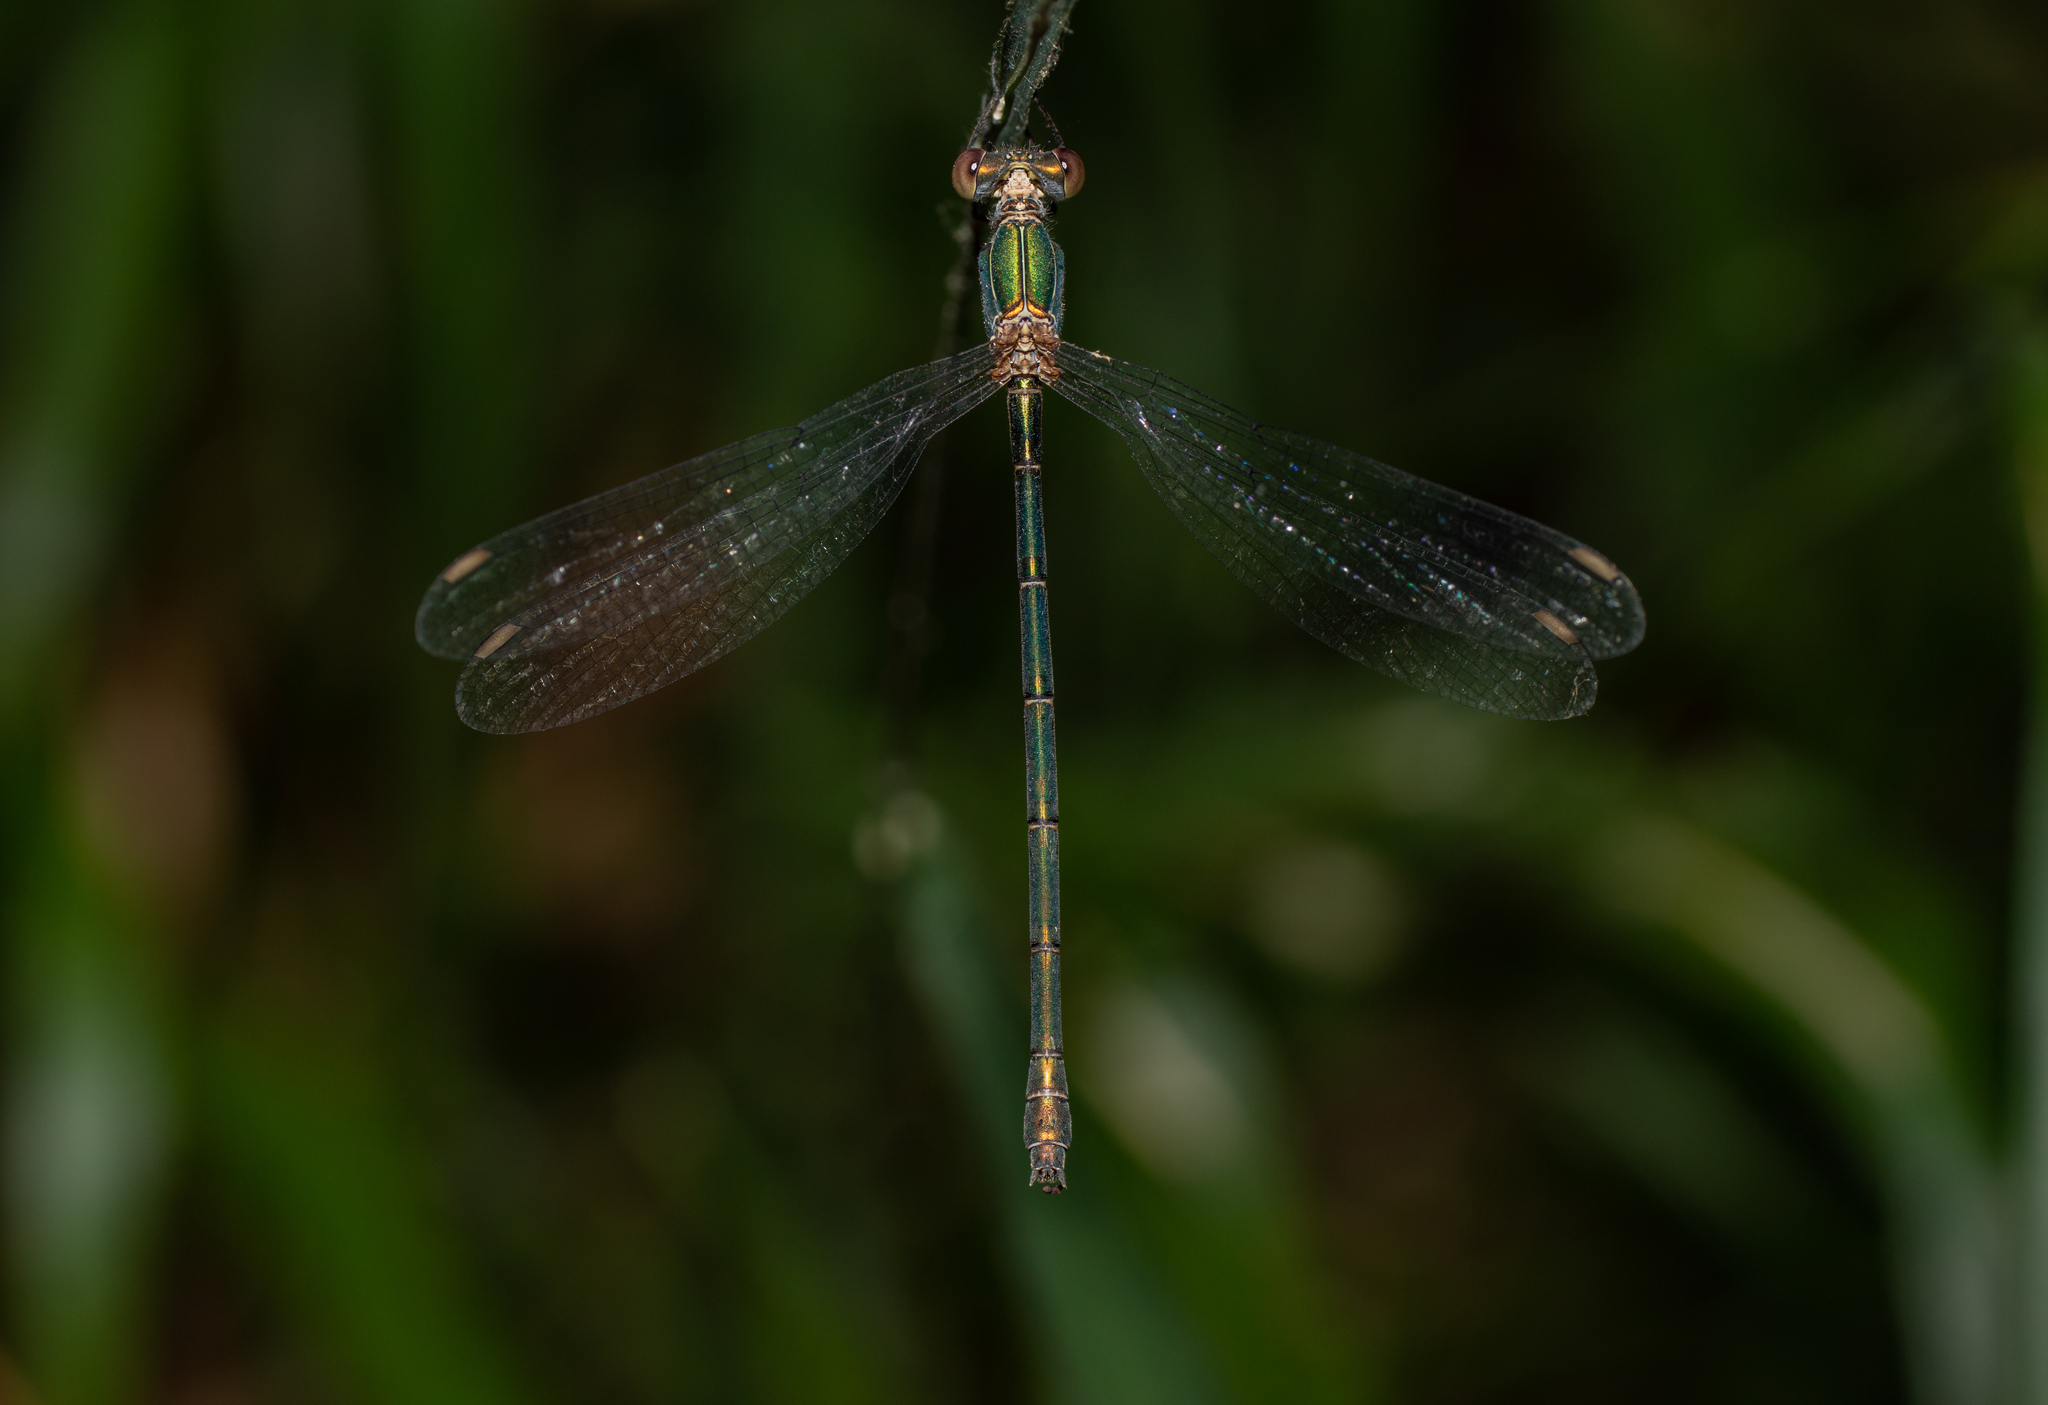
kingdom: Animalia
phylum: Arthropoda
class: Insecta
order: Odonata
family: Lestidae
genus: Chalcolestes
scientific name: Chalcolestes viridis
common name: Green emerald damselfly
